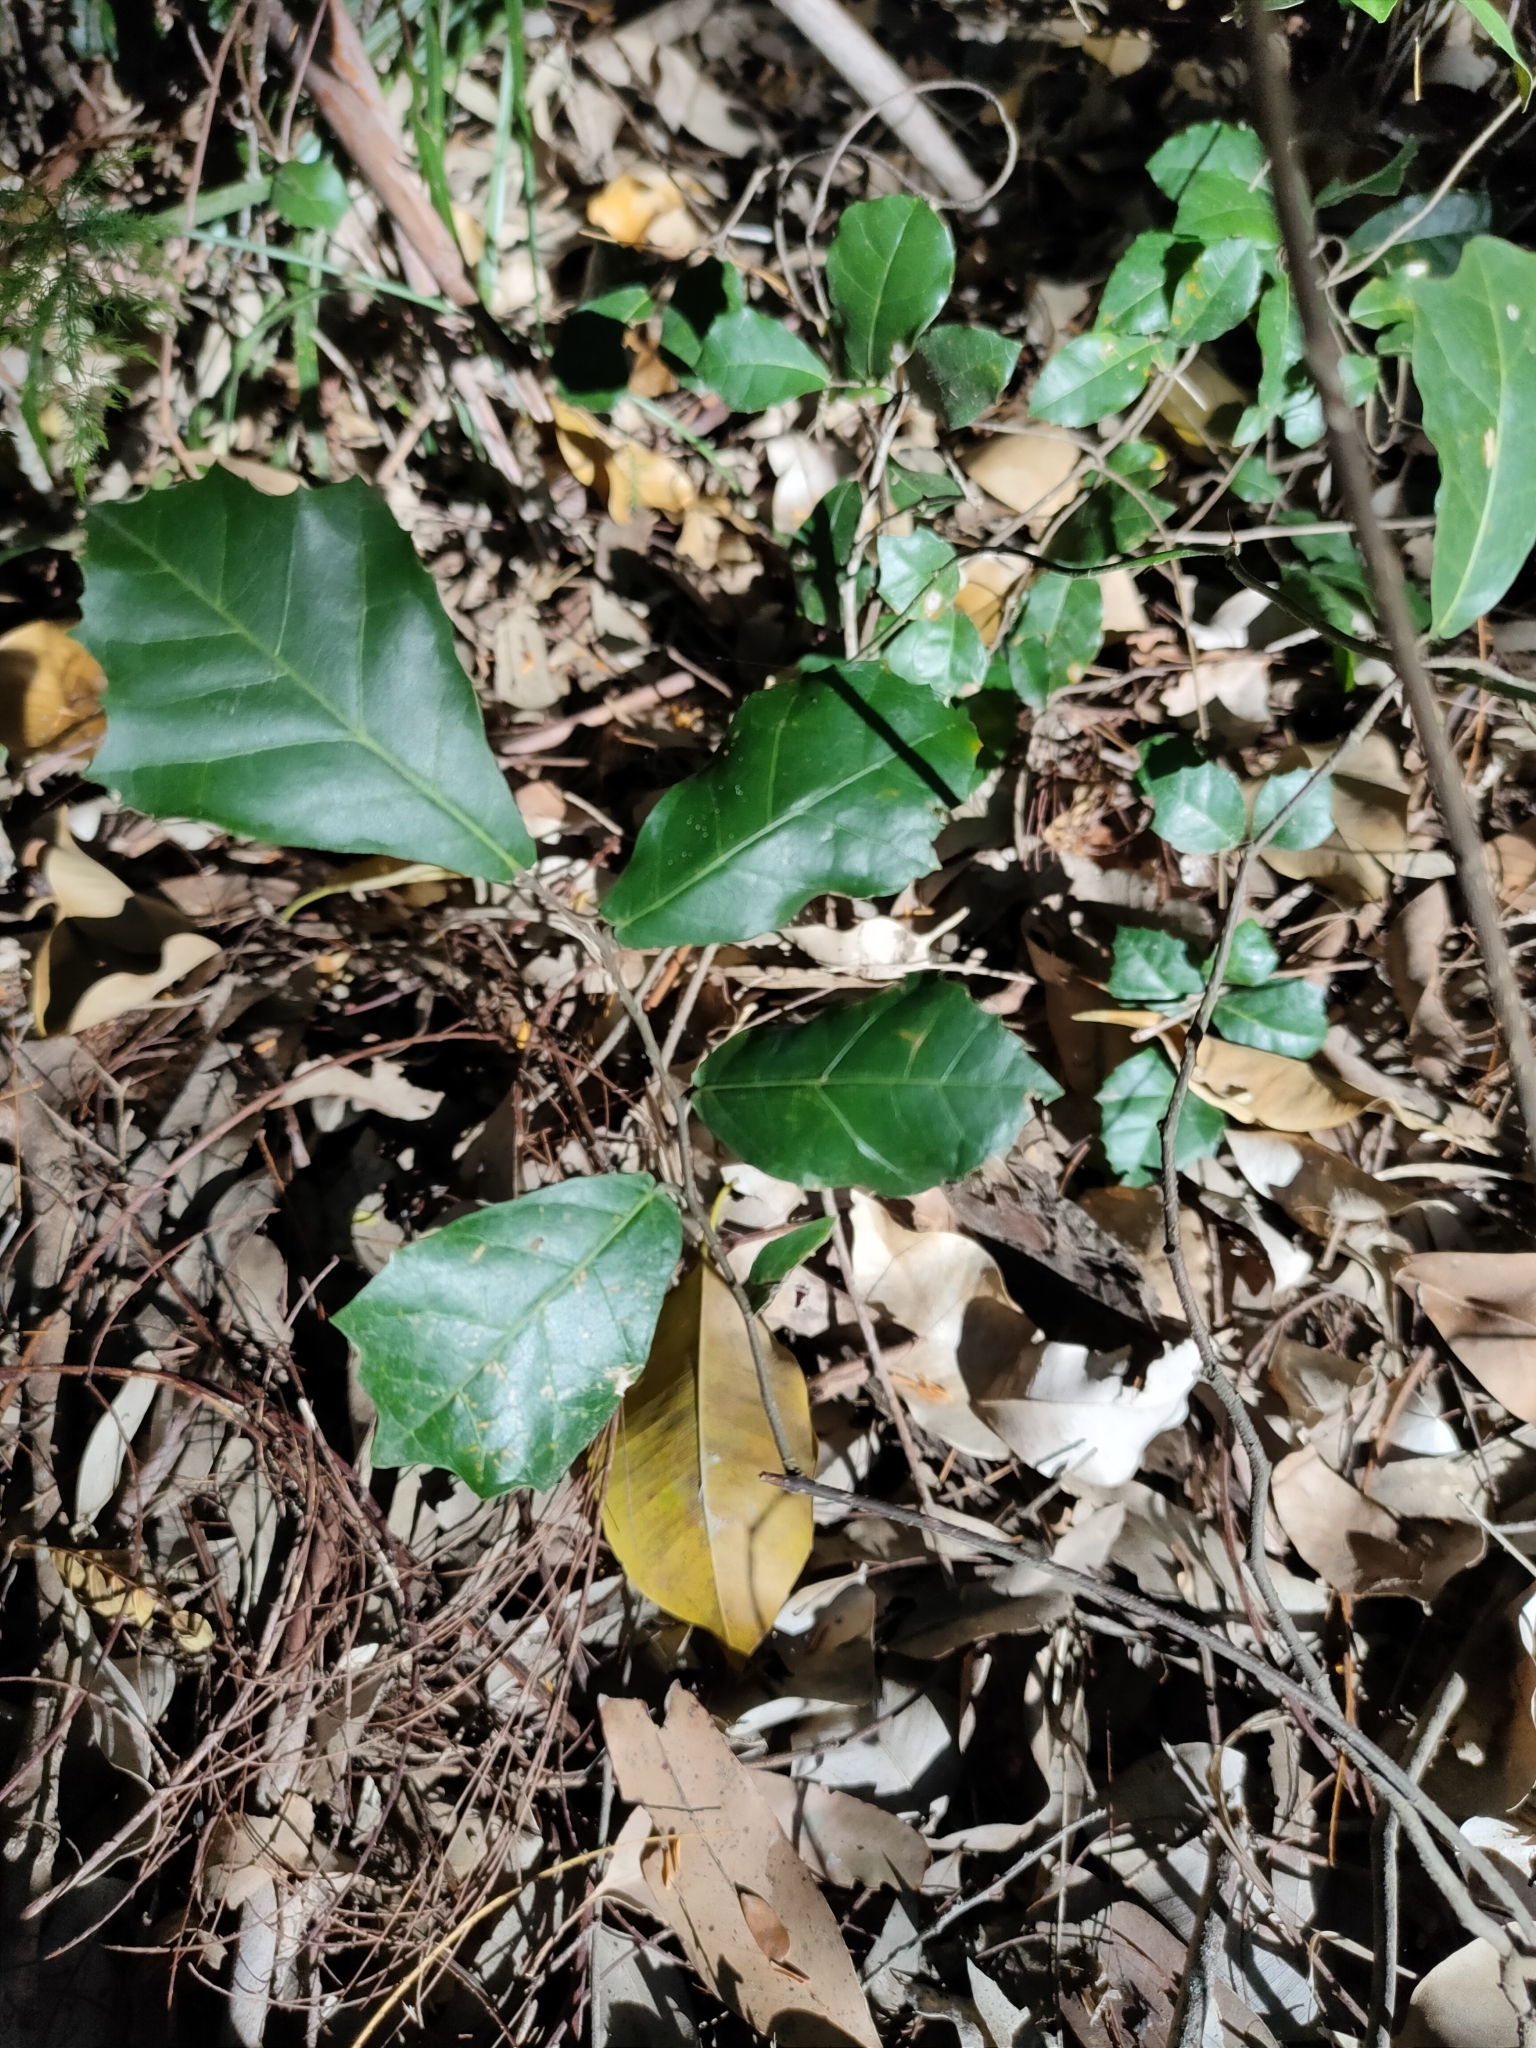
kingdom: Plantae
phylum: Tracheophyta
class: Magnoliopsida
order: Rosales
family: Moraceae
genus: Malaisia
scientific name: Malaisia scandens
